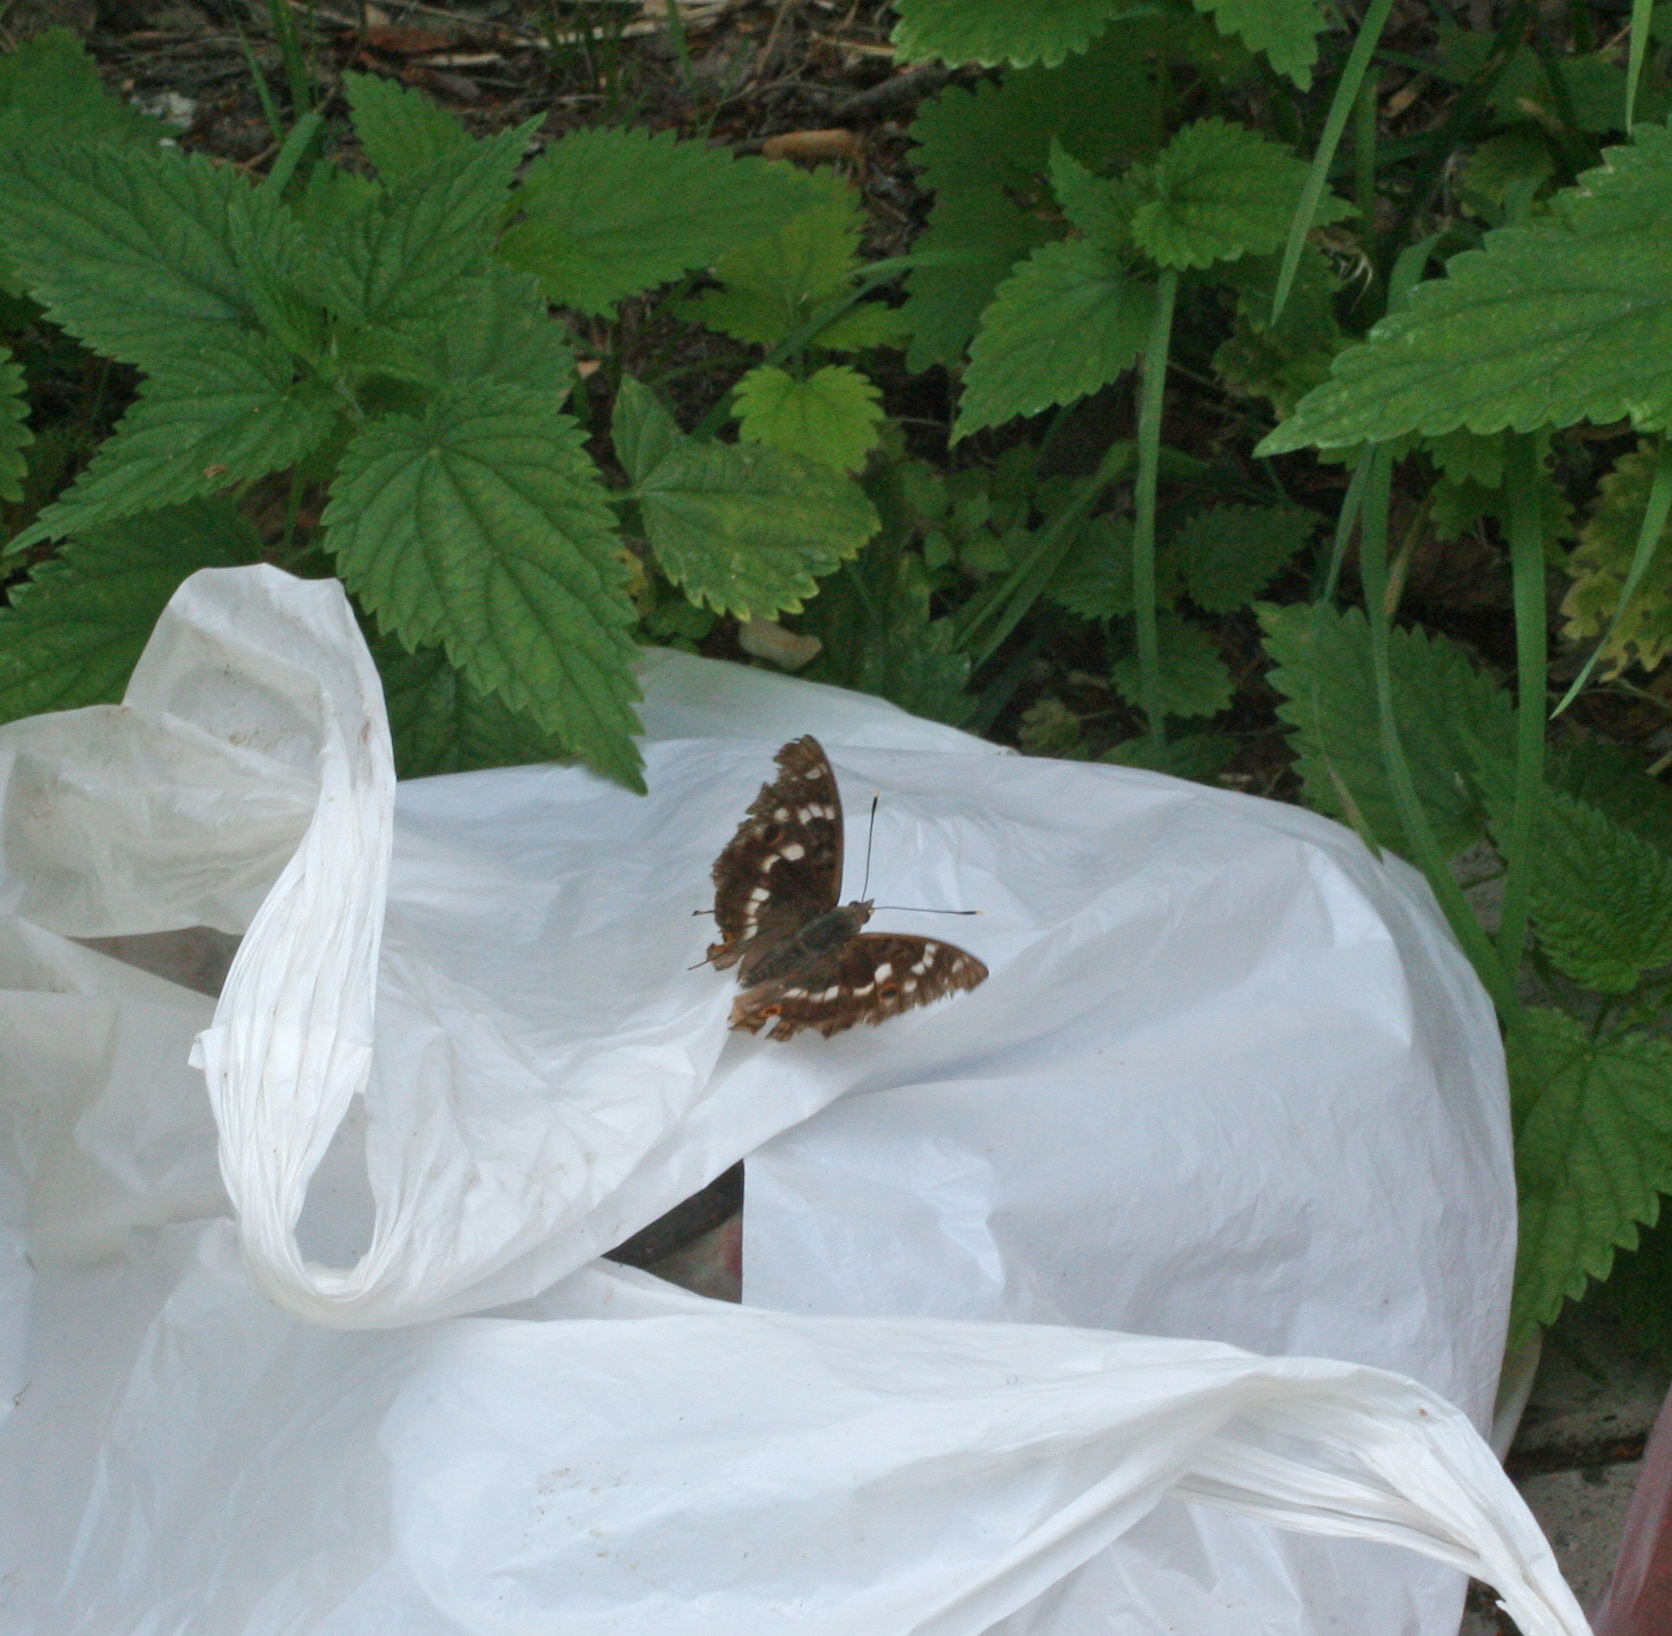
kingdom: Animalia
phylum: Arthropoda
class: Insecta
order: Lepidoptera
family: Nymphalidae
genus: Apatura
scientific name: Apatura ilia
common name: Lesser purple emperor
